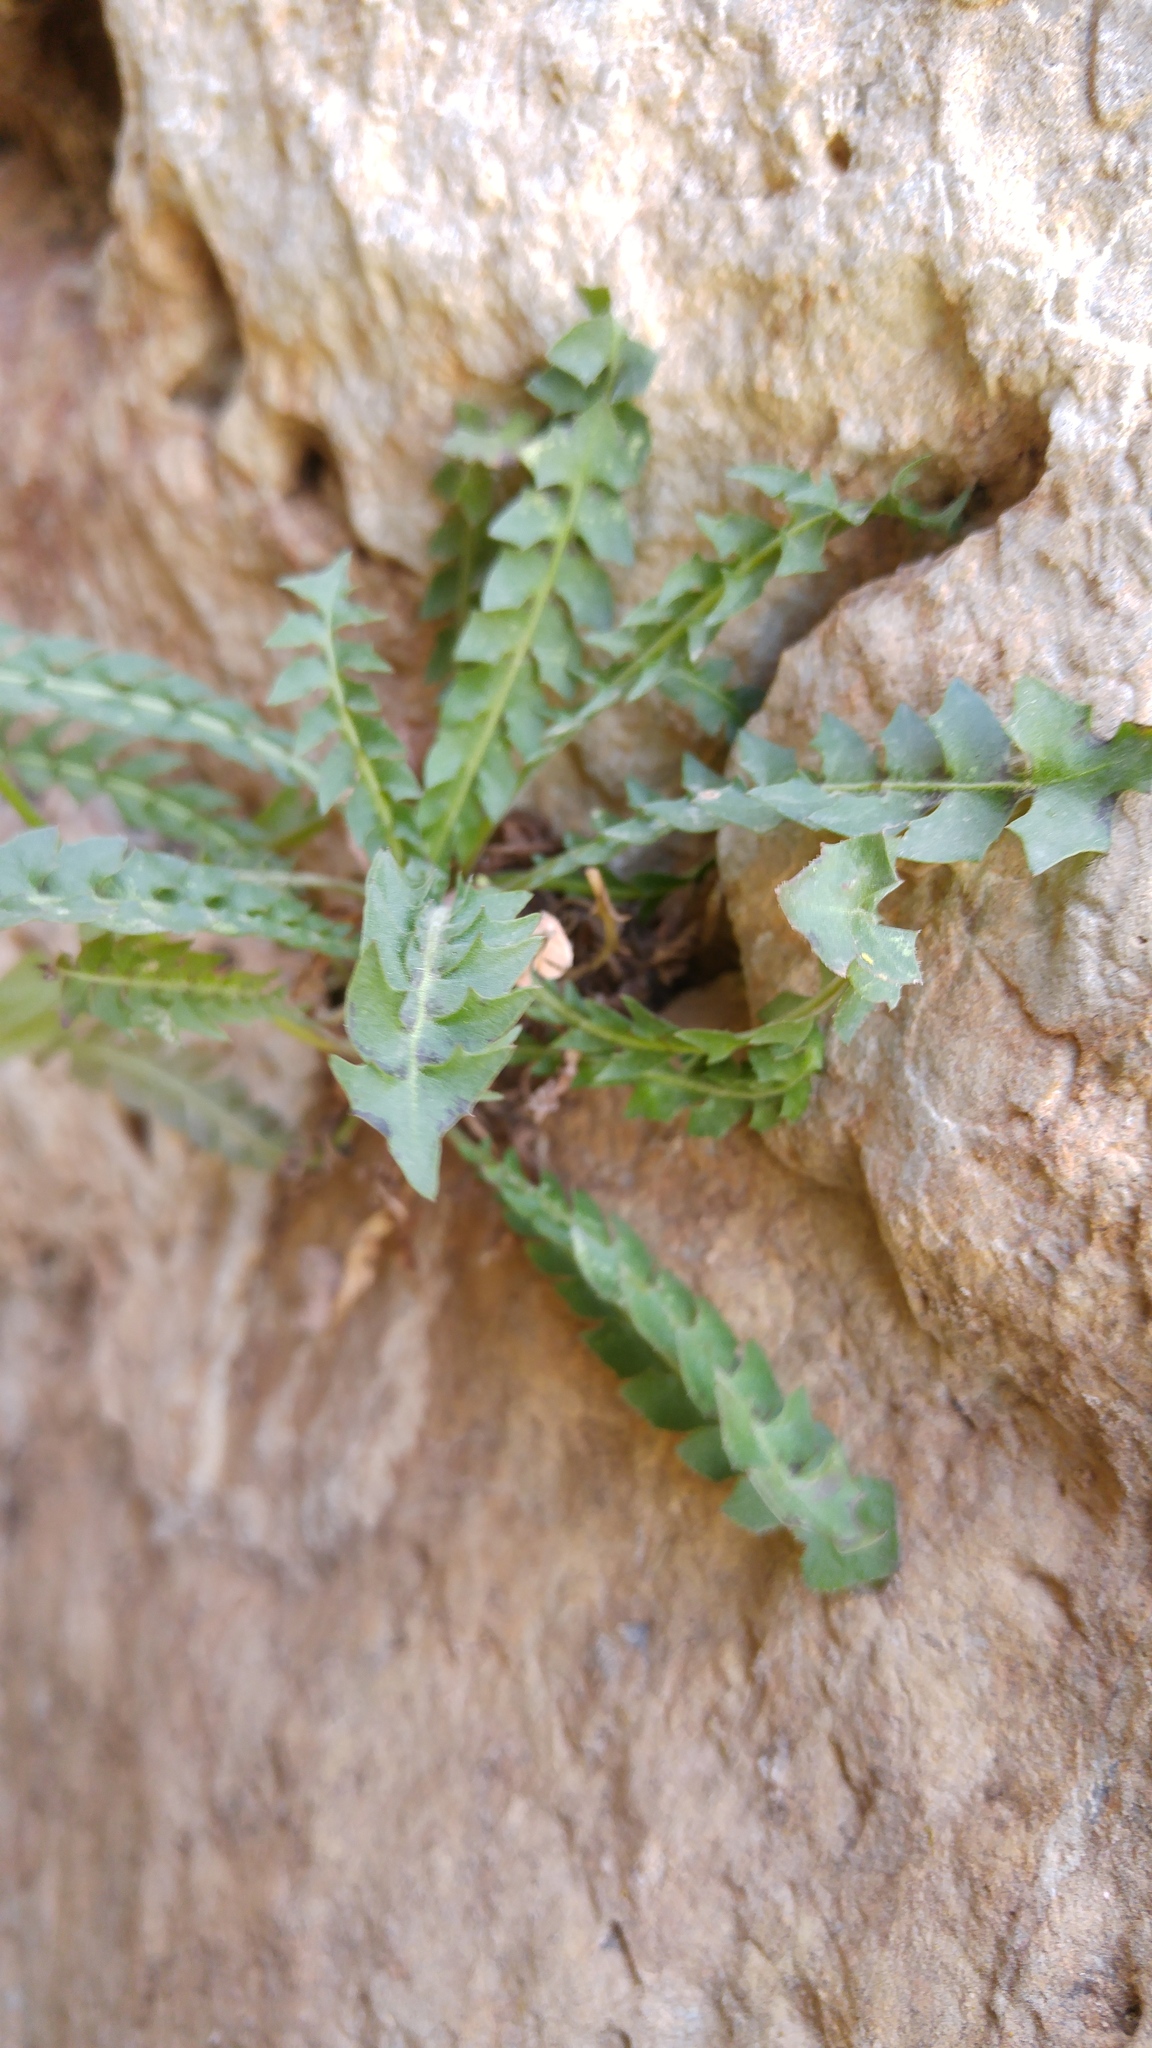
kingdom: Plantae
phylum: Tracheophyta
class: Magnoliopsida
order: Asterales
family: Asteraceae
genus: Hyoseris
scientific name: Hyoseris radiata
